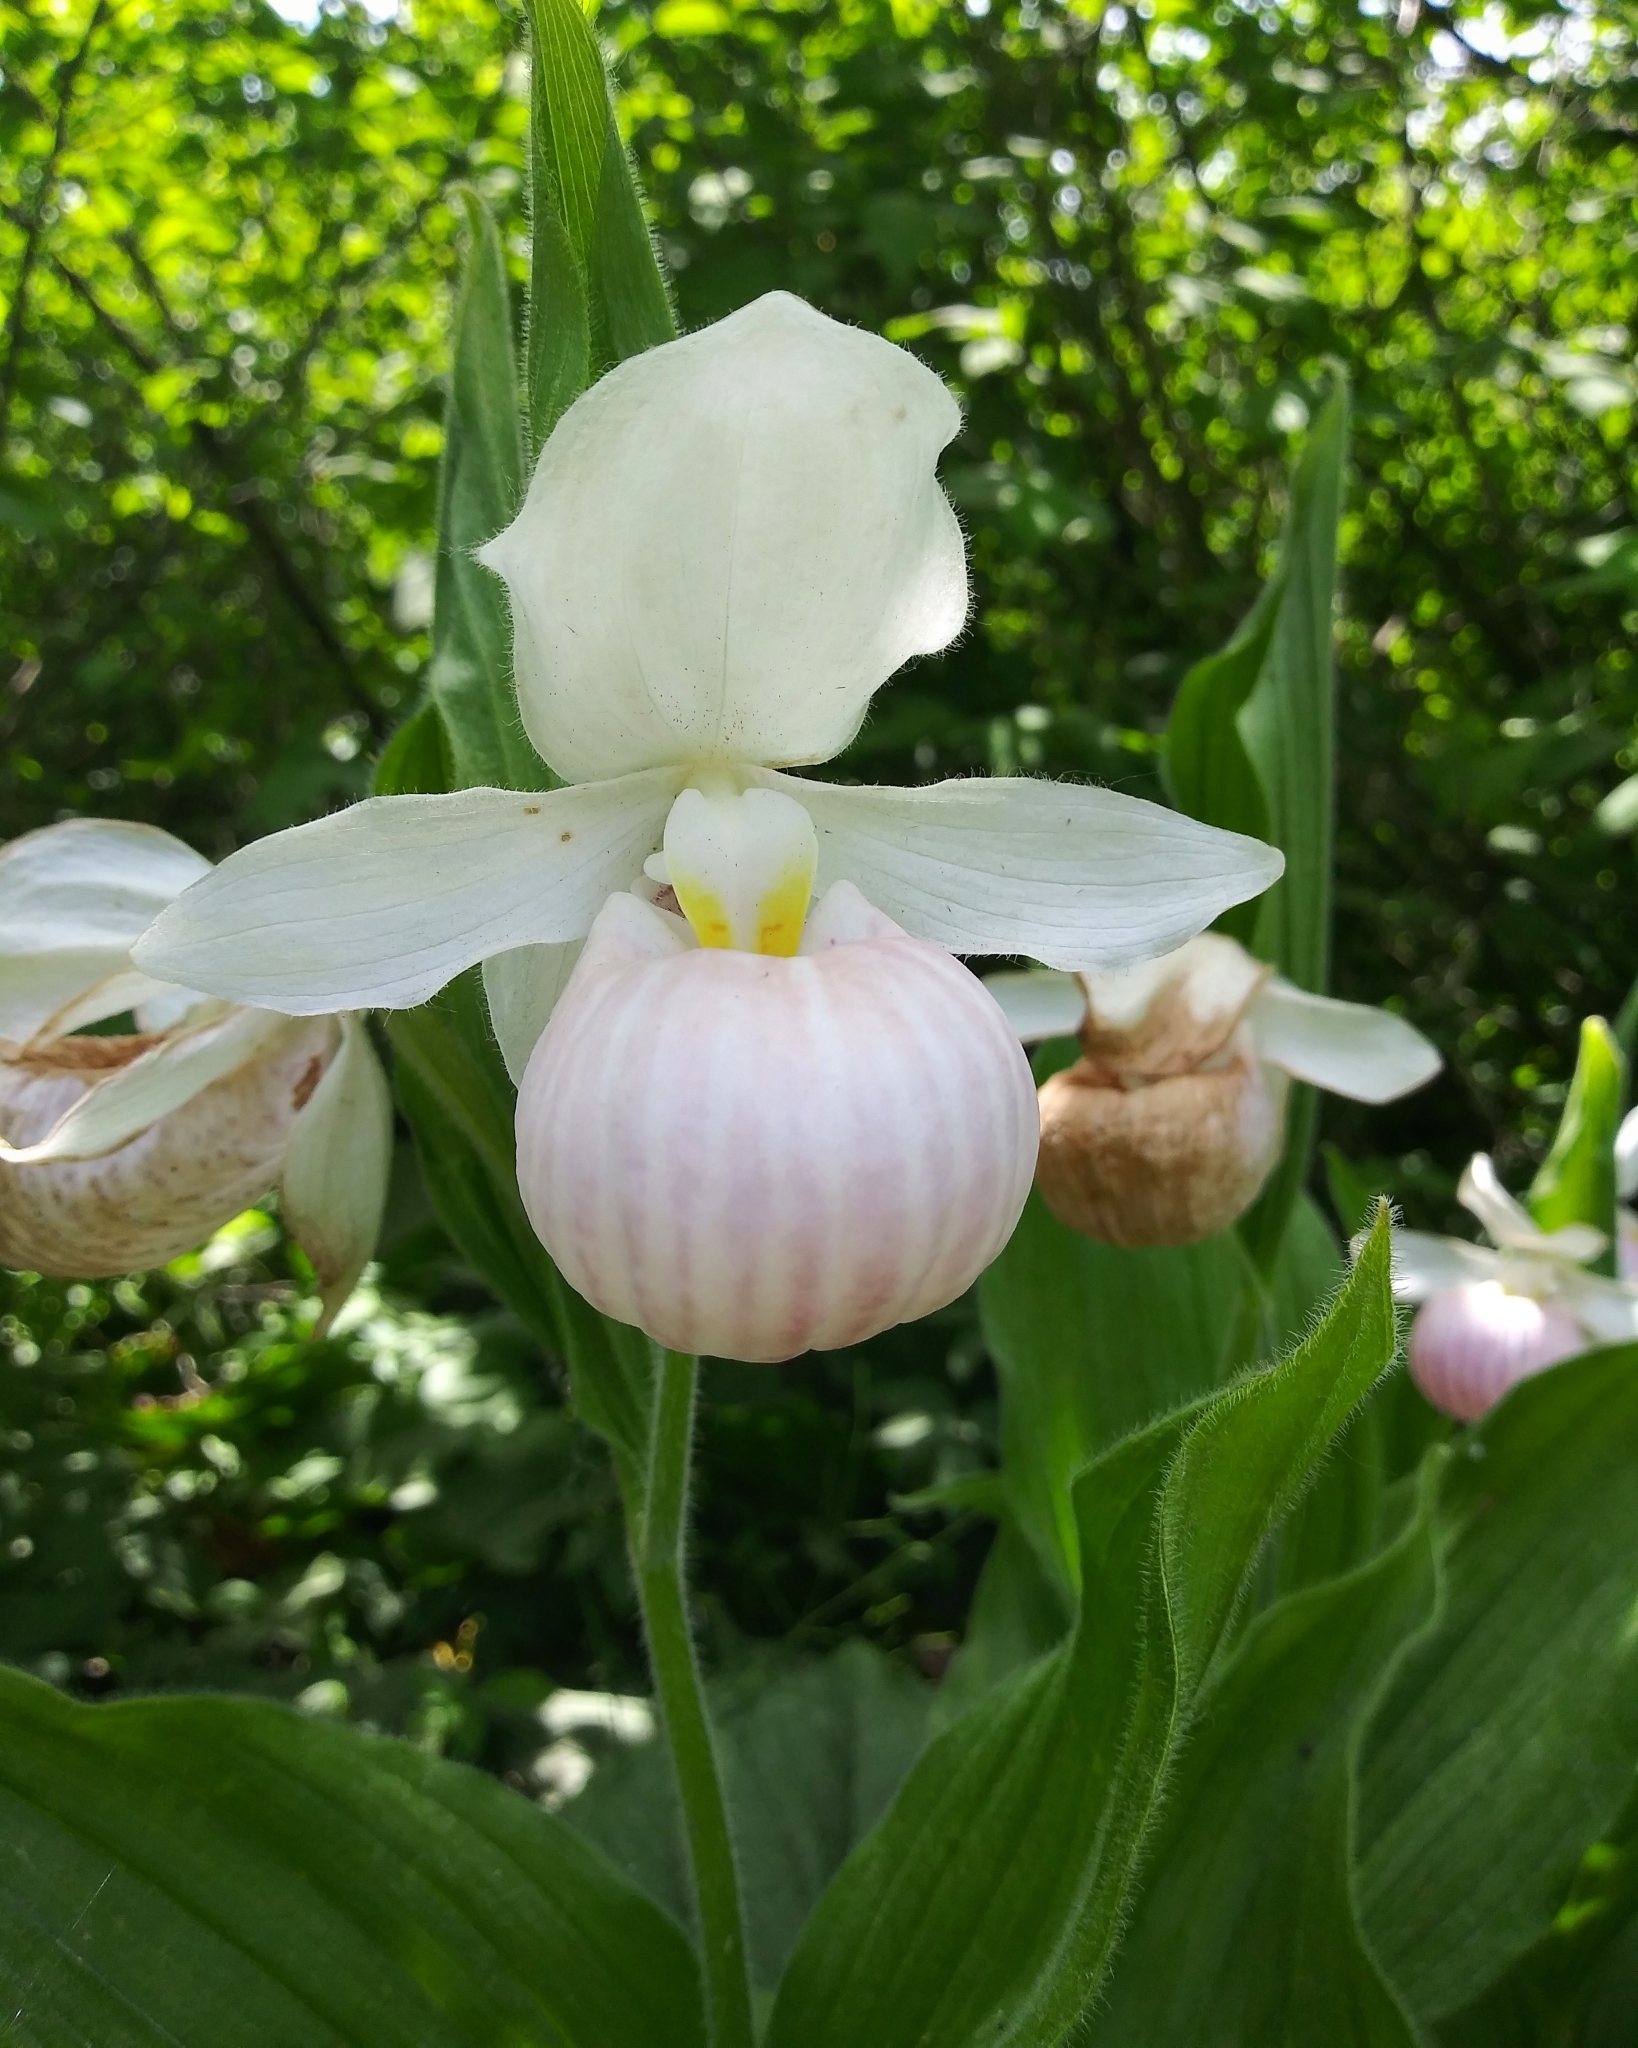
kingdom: Plantae
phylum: Tracheophyta
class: Liliopsida
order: Asparagales
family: Orchidaceae
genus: Cypripedium
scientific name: Cypripedium reginae
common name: Queen lady's-slipper
